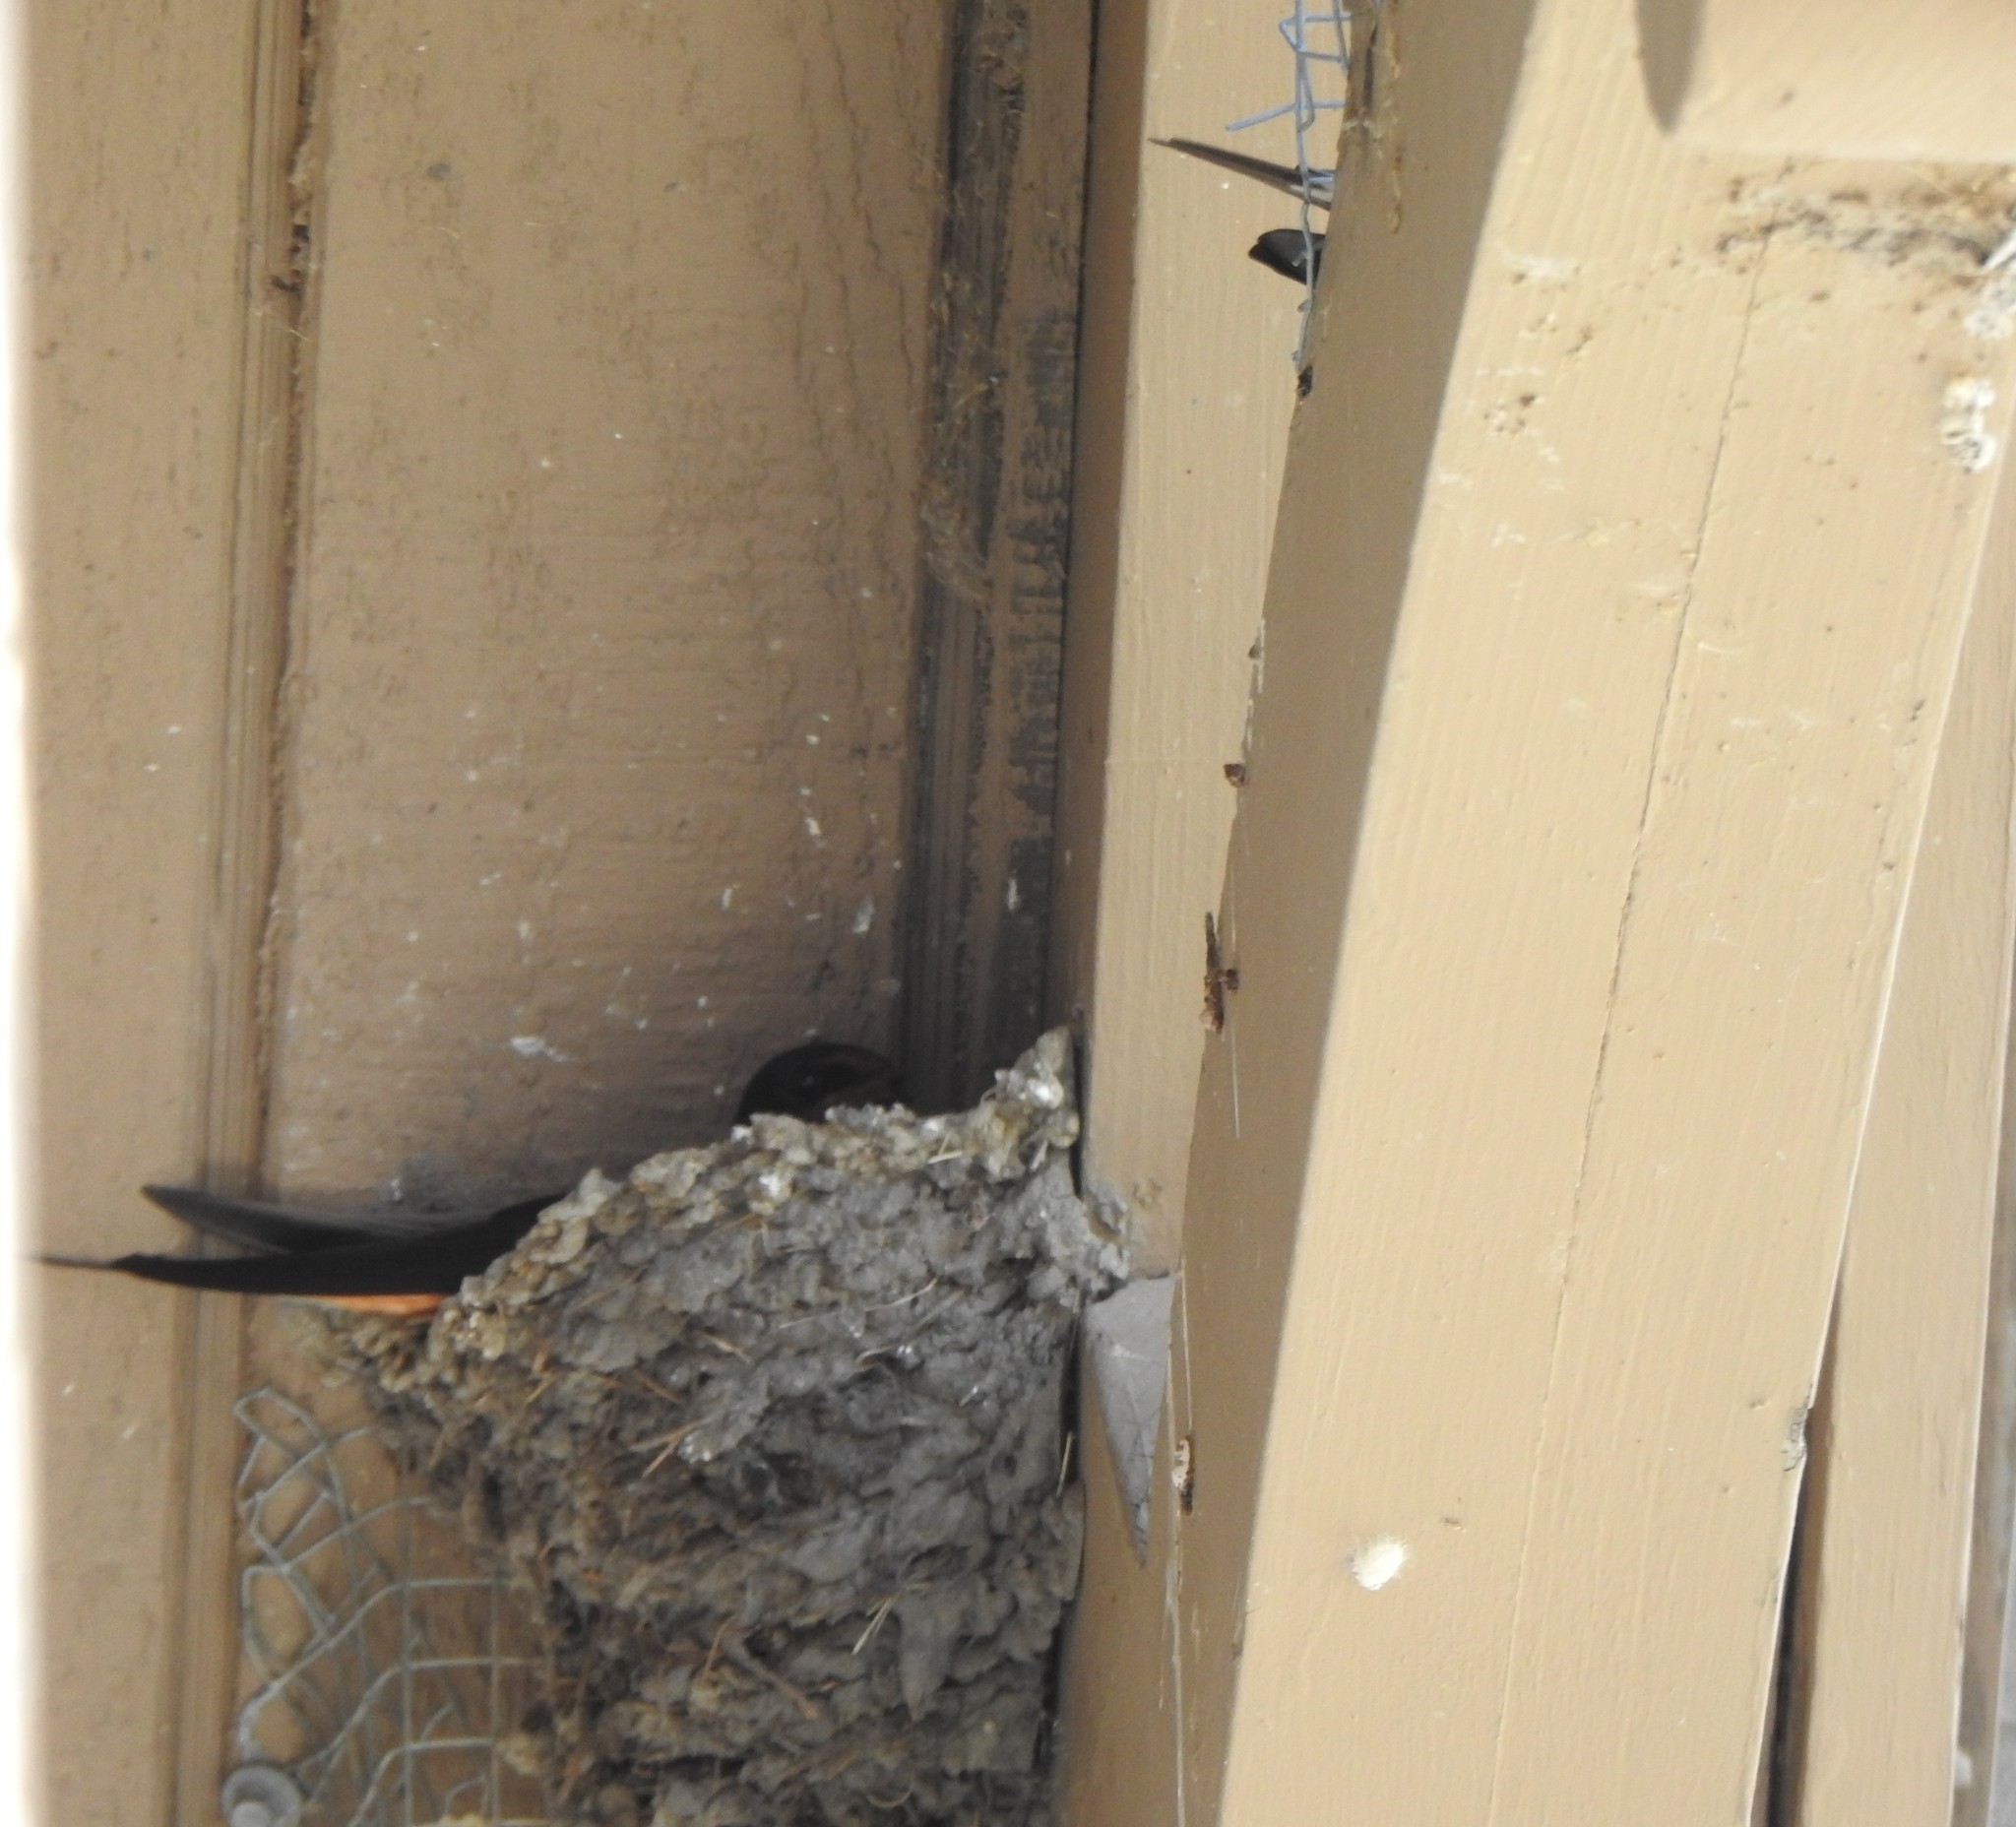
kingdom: Animalia
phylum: Chordata
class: Aves
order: Passeriformes
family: Hirundinidae
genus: Hirundo
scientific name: Hirundo rustica
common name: Barn swallow
